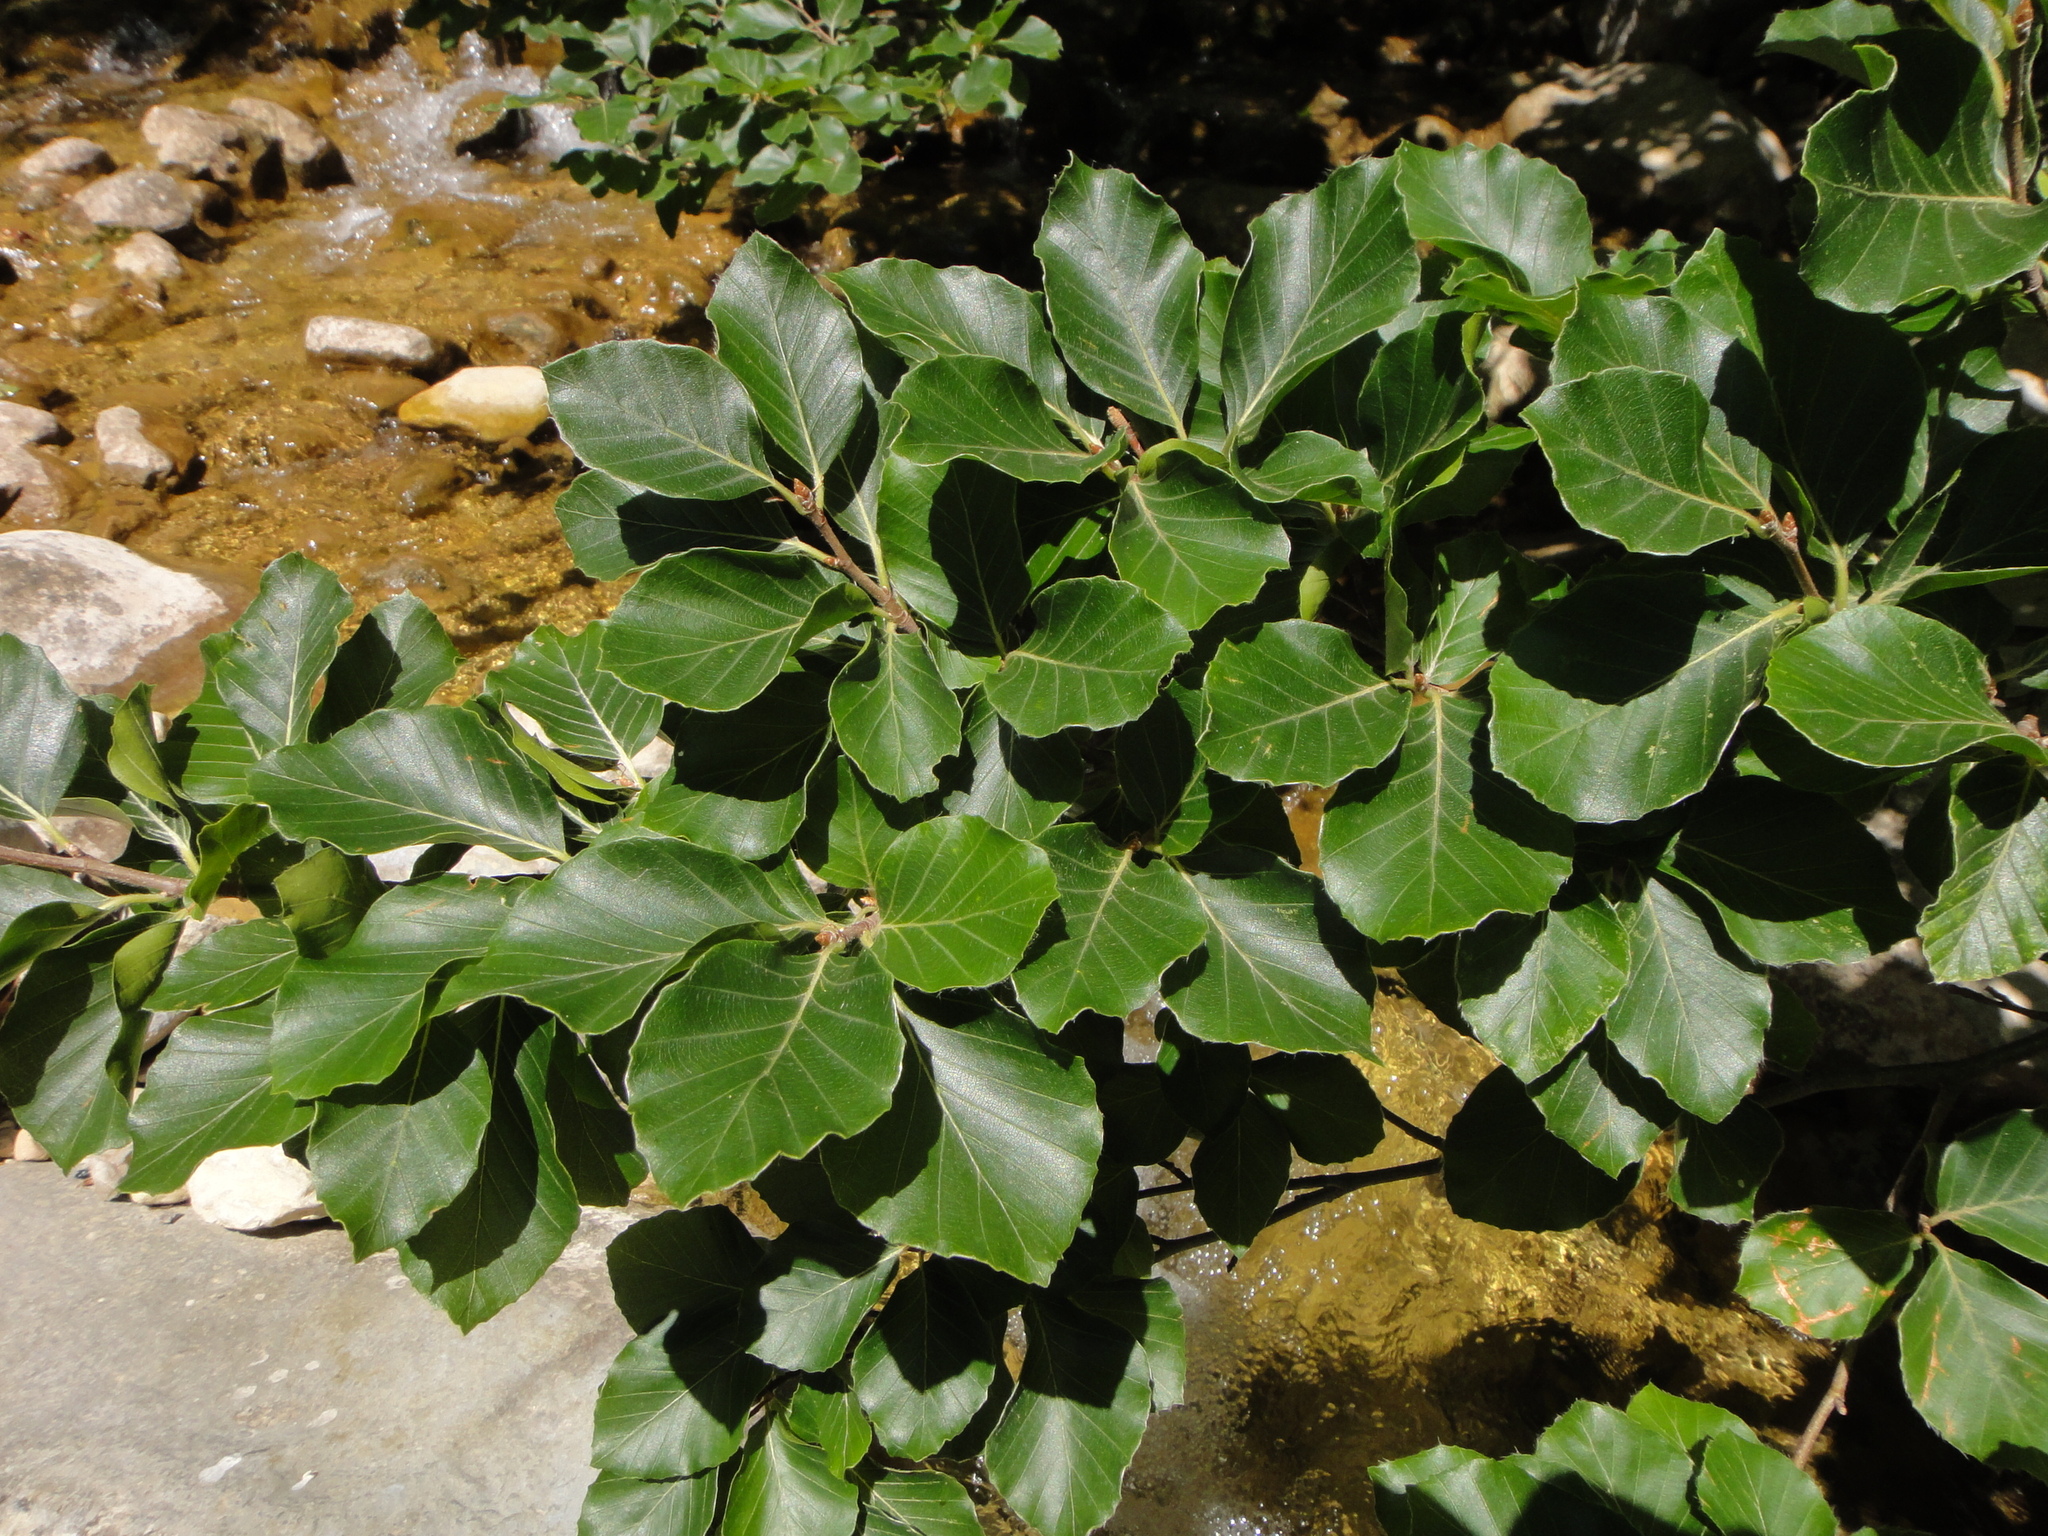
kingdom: Plantae
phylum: Tracheophyta
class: Magnoliopsida
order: Fagales
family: Fagaceae
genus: Fagus
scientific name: Fagus sylvatica
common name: Beech
